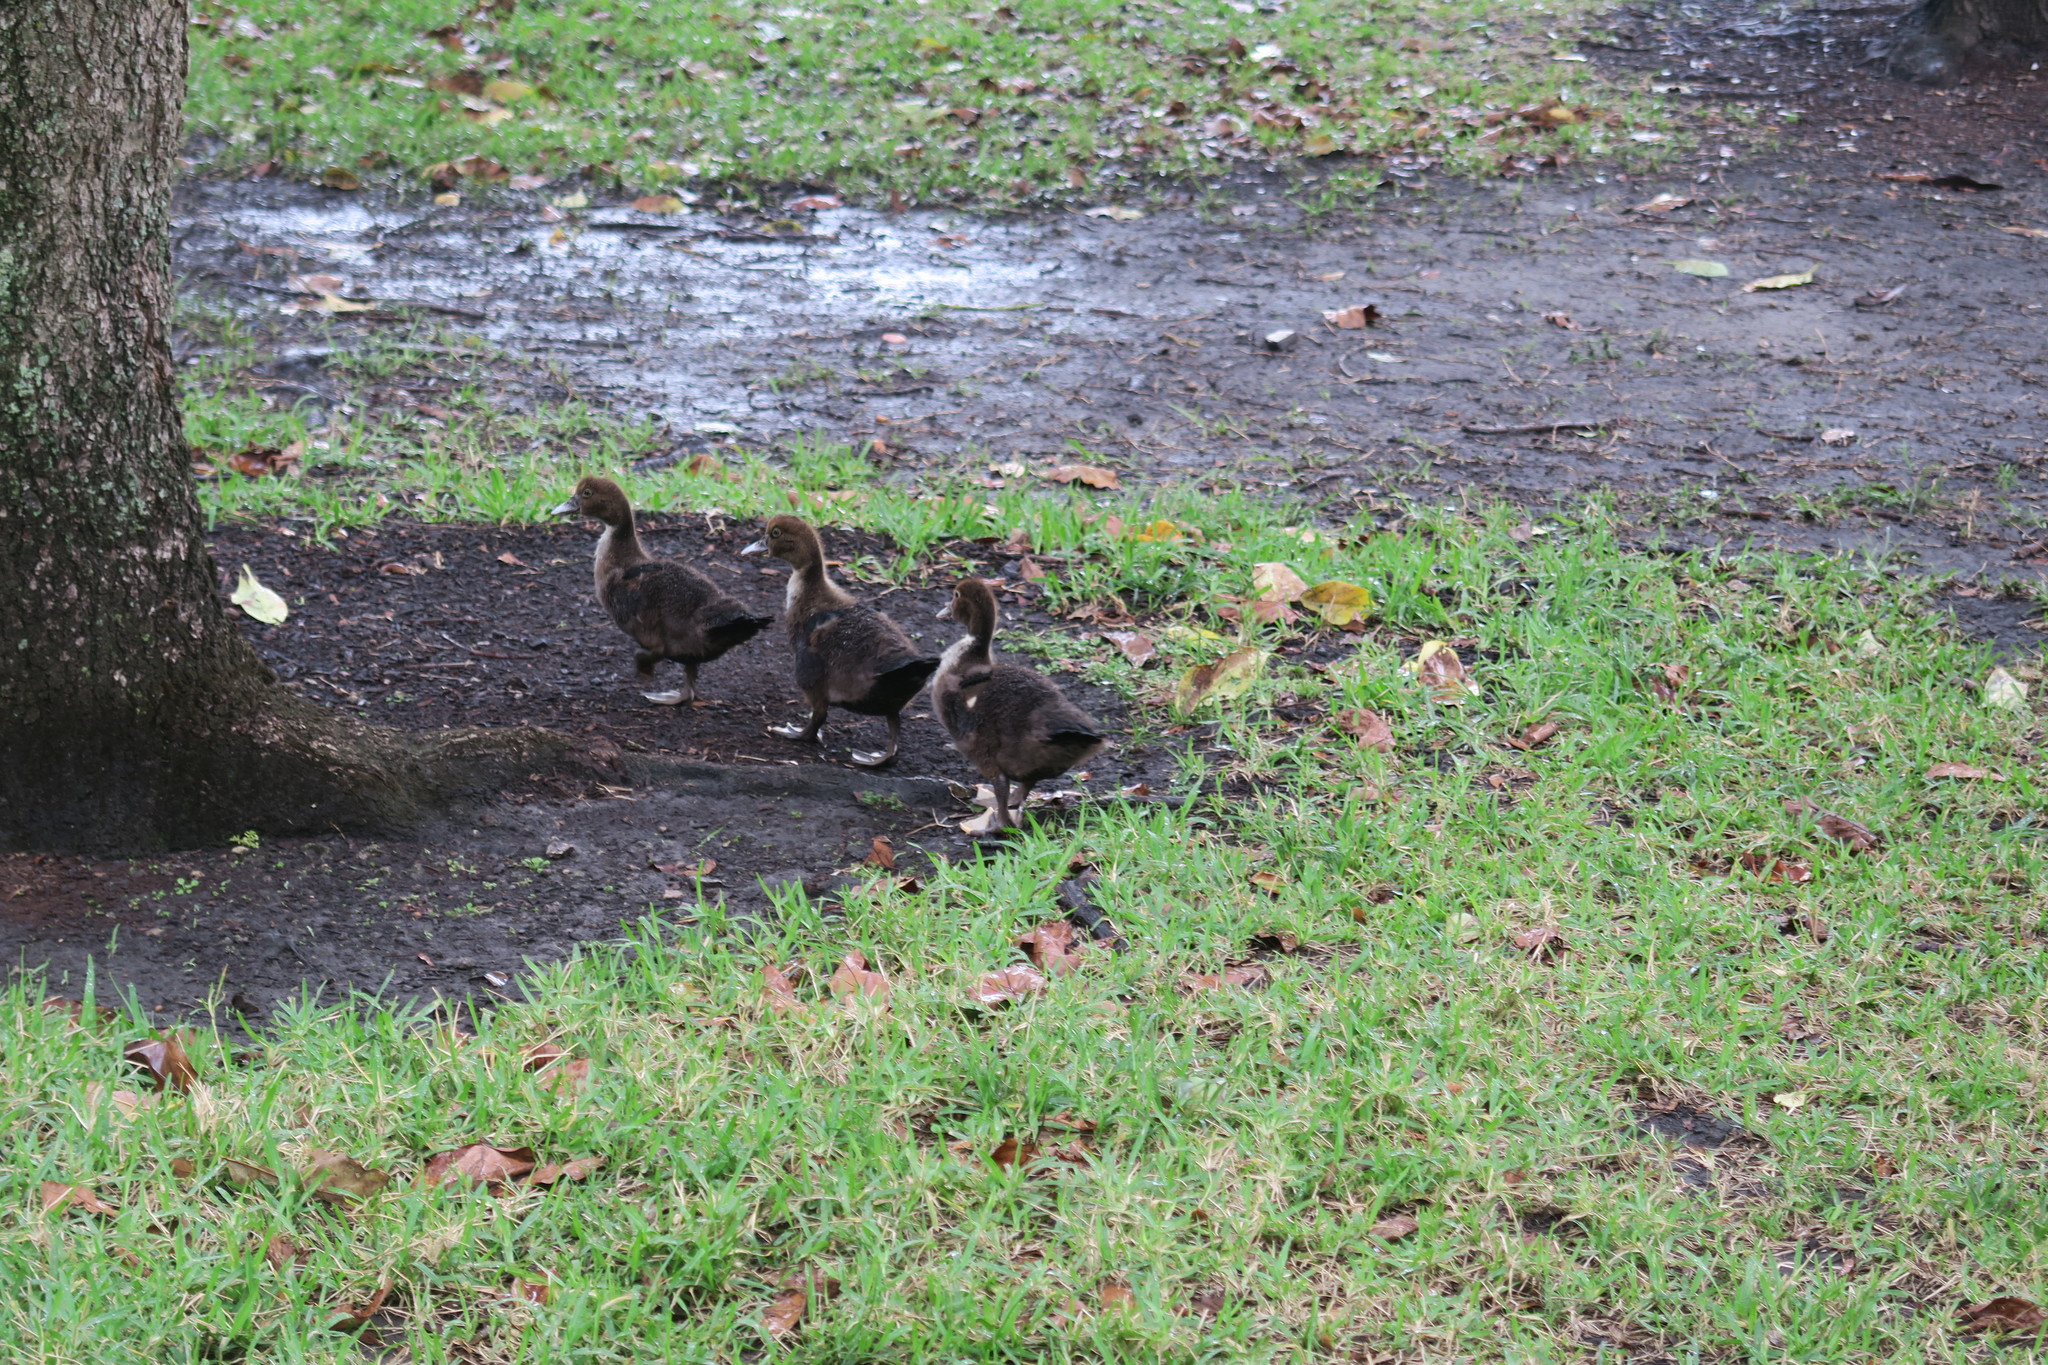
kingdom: Animalia
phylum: Chordata
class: Aves
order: Anseriformes
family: Anatidae
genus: Cairina
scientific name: Cairina moschata
